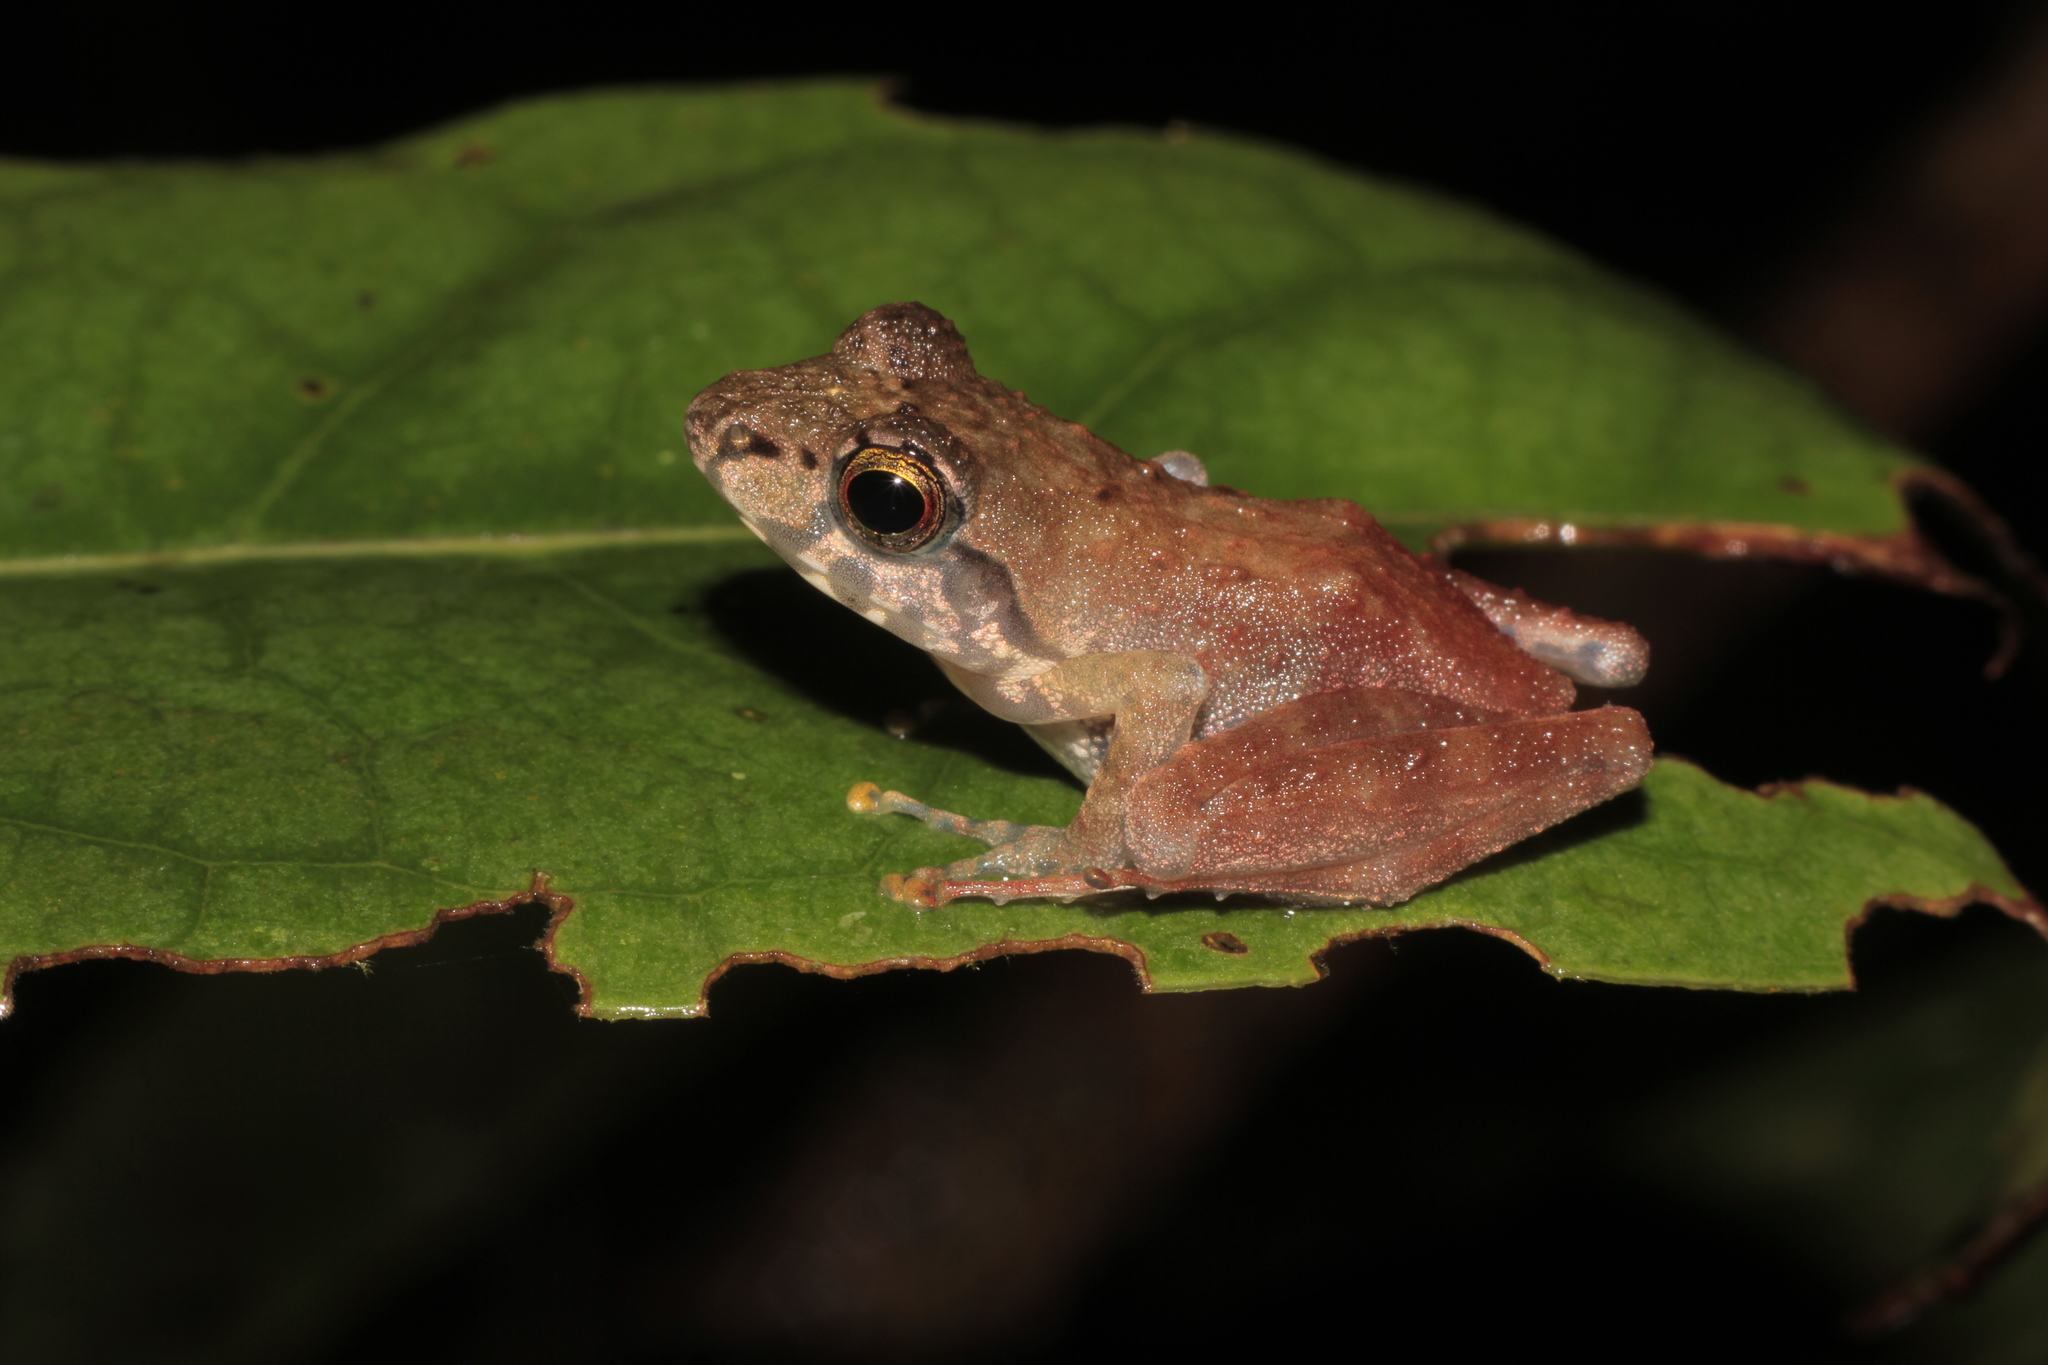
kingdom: Animalia
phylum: Chordata
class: Amphibia
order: Anura
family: Mantellidae
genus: Gephyromantis
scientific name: Gephyromantis boulengeri
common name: Boulenger's madagascar frog
